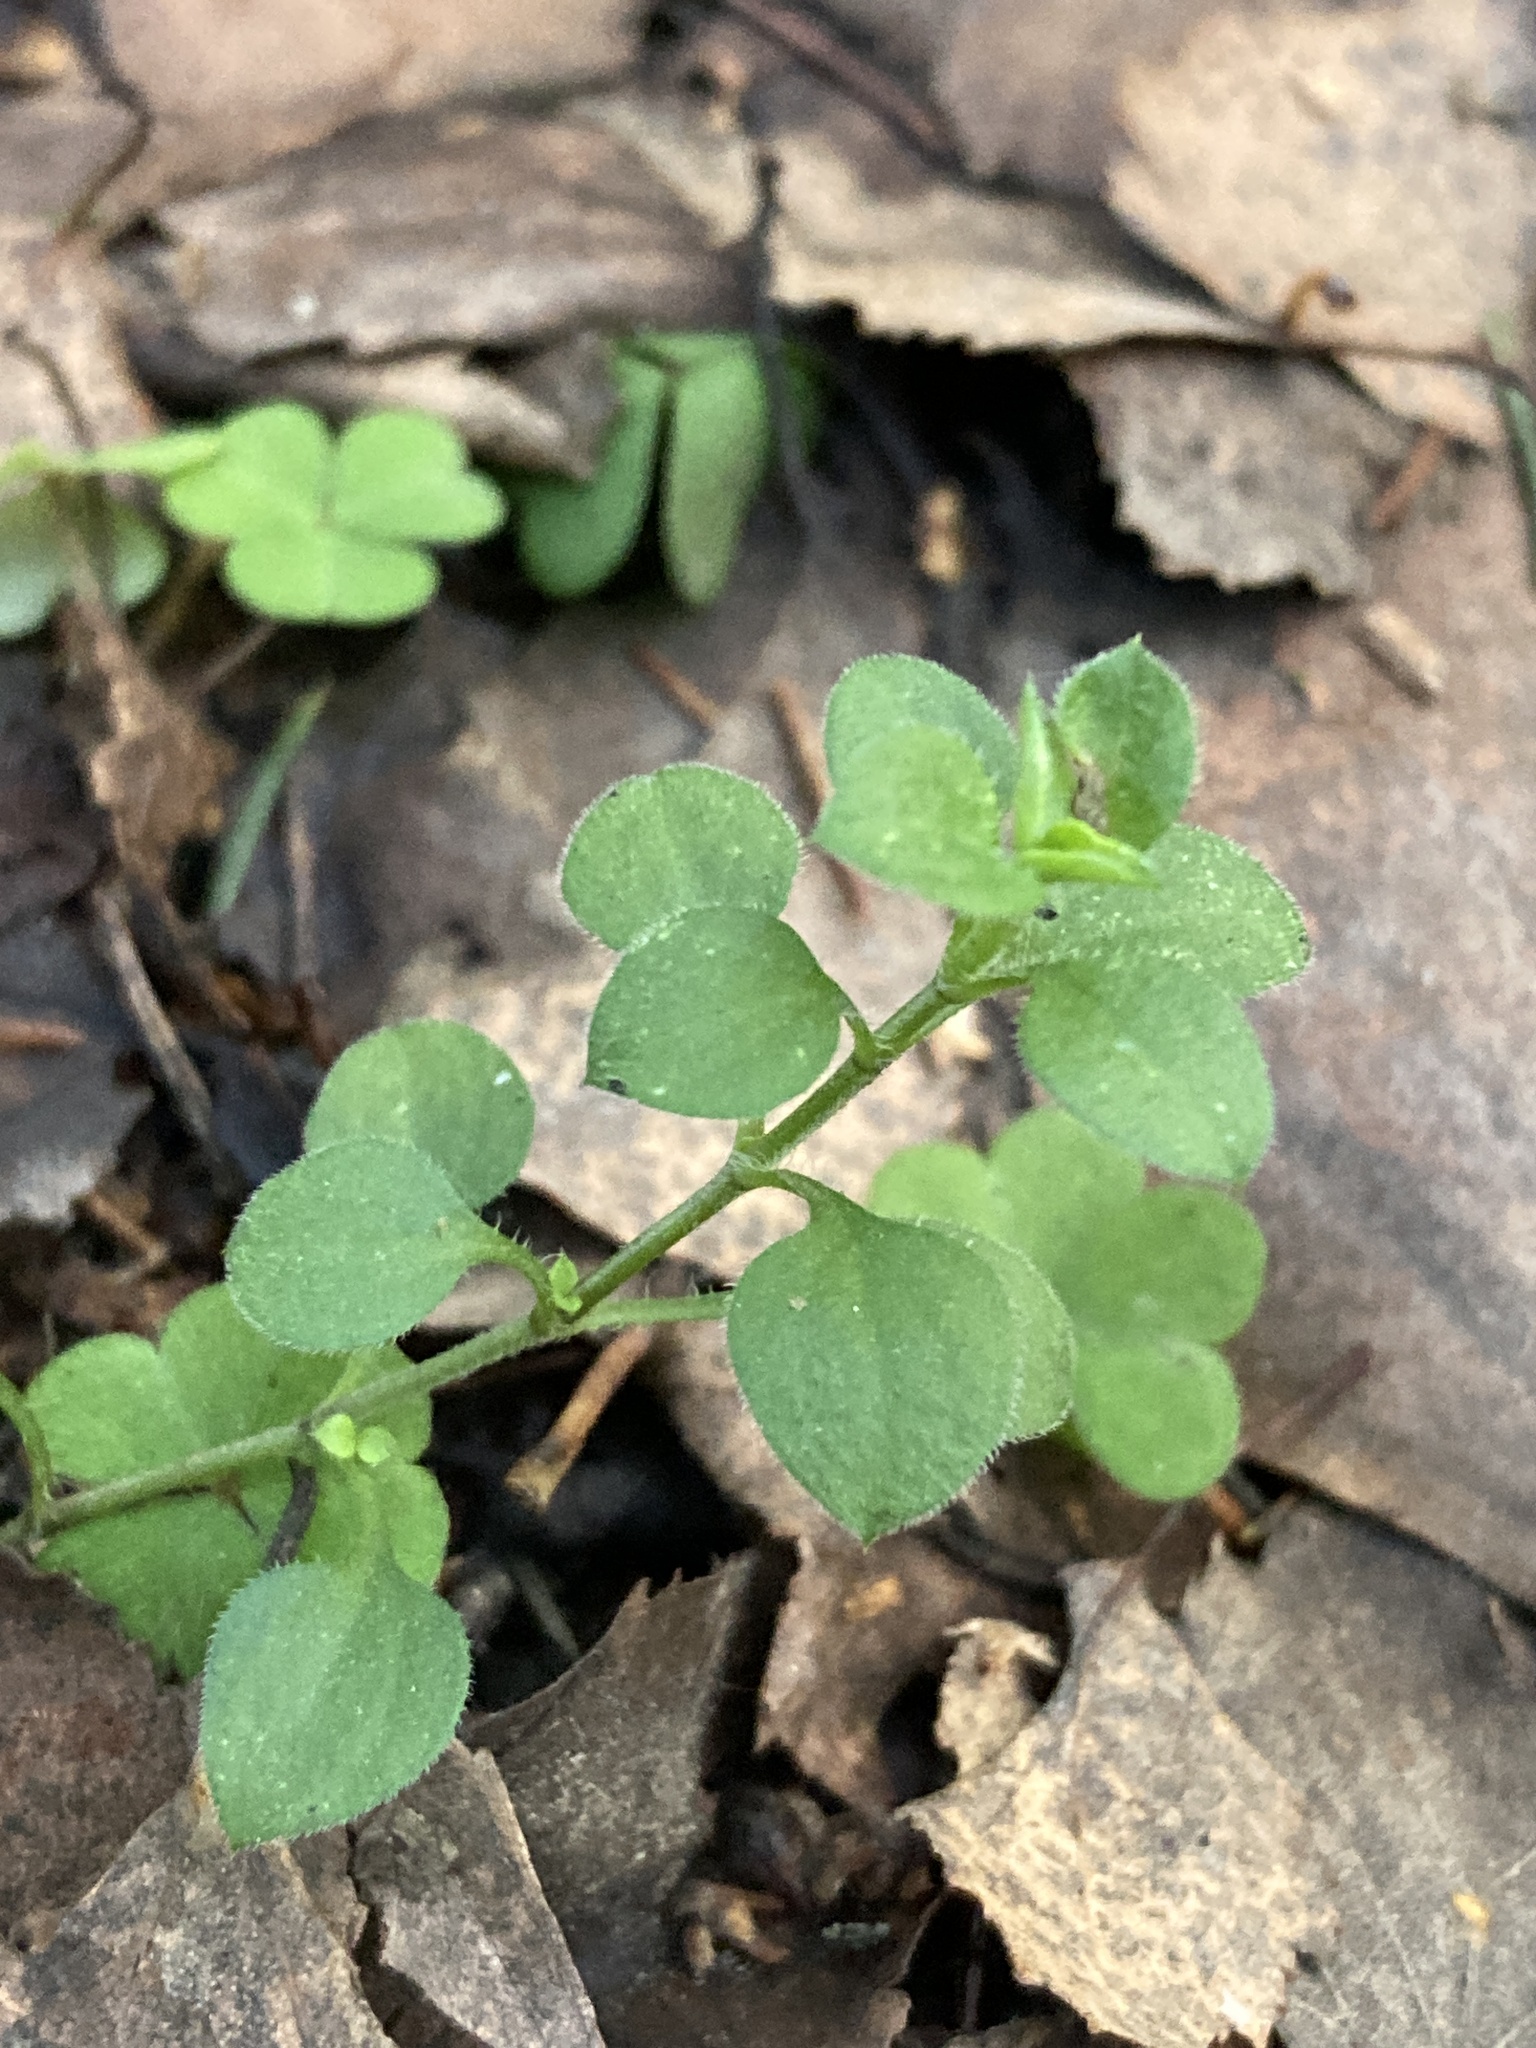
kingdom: Plantae
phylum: Tracheophyta
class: Magnoliopsida
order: Caryophyllales
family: Caryophyllaceae
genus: Moehringia
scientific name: Moehringia trinervia
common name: Three-nerved sandwort
